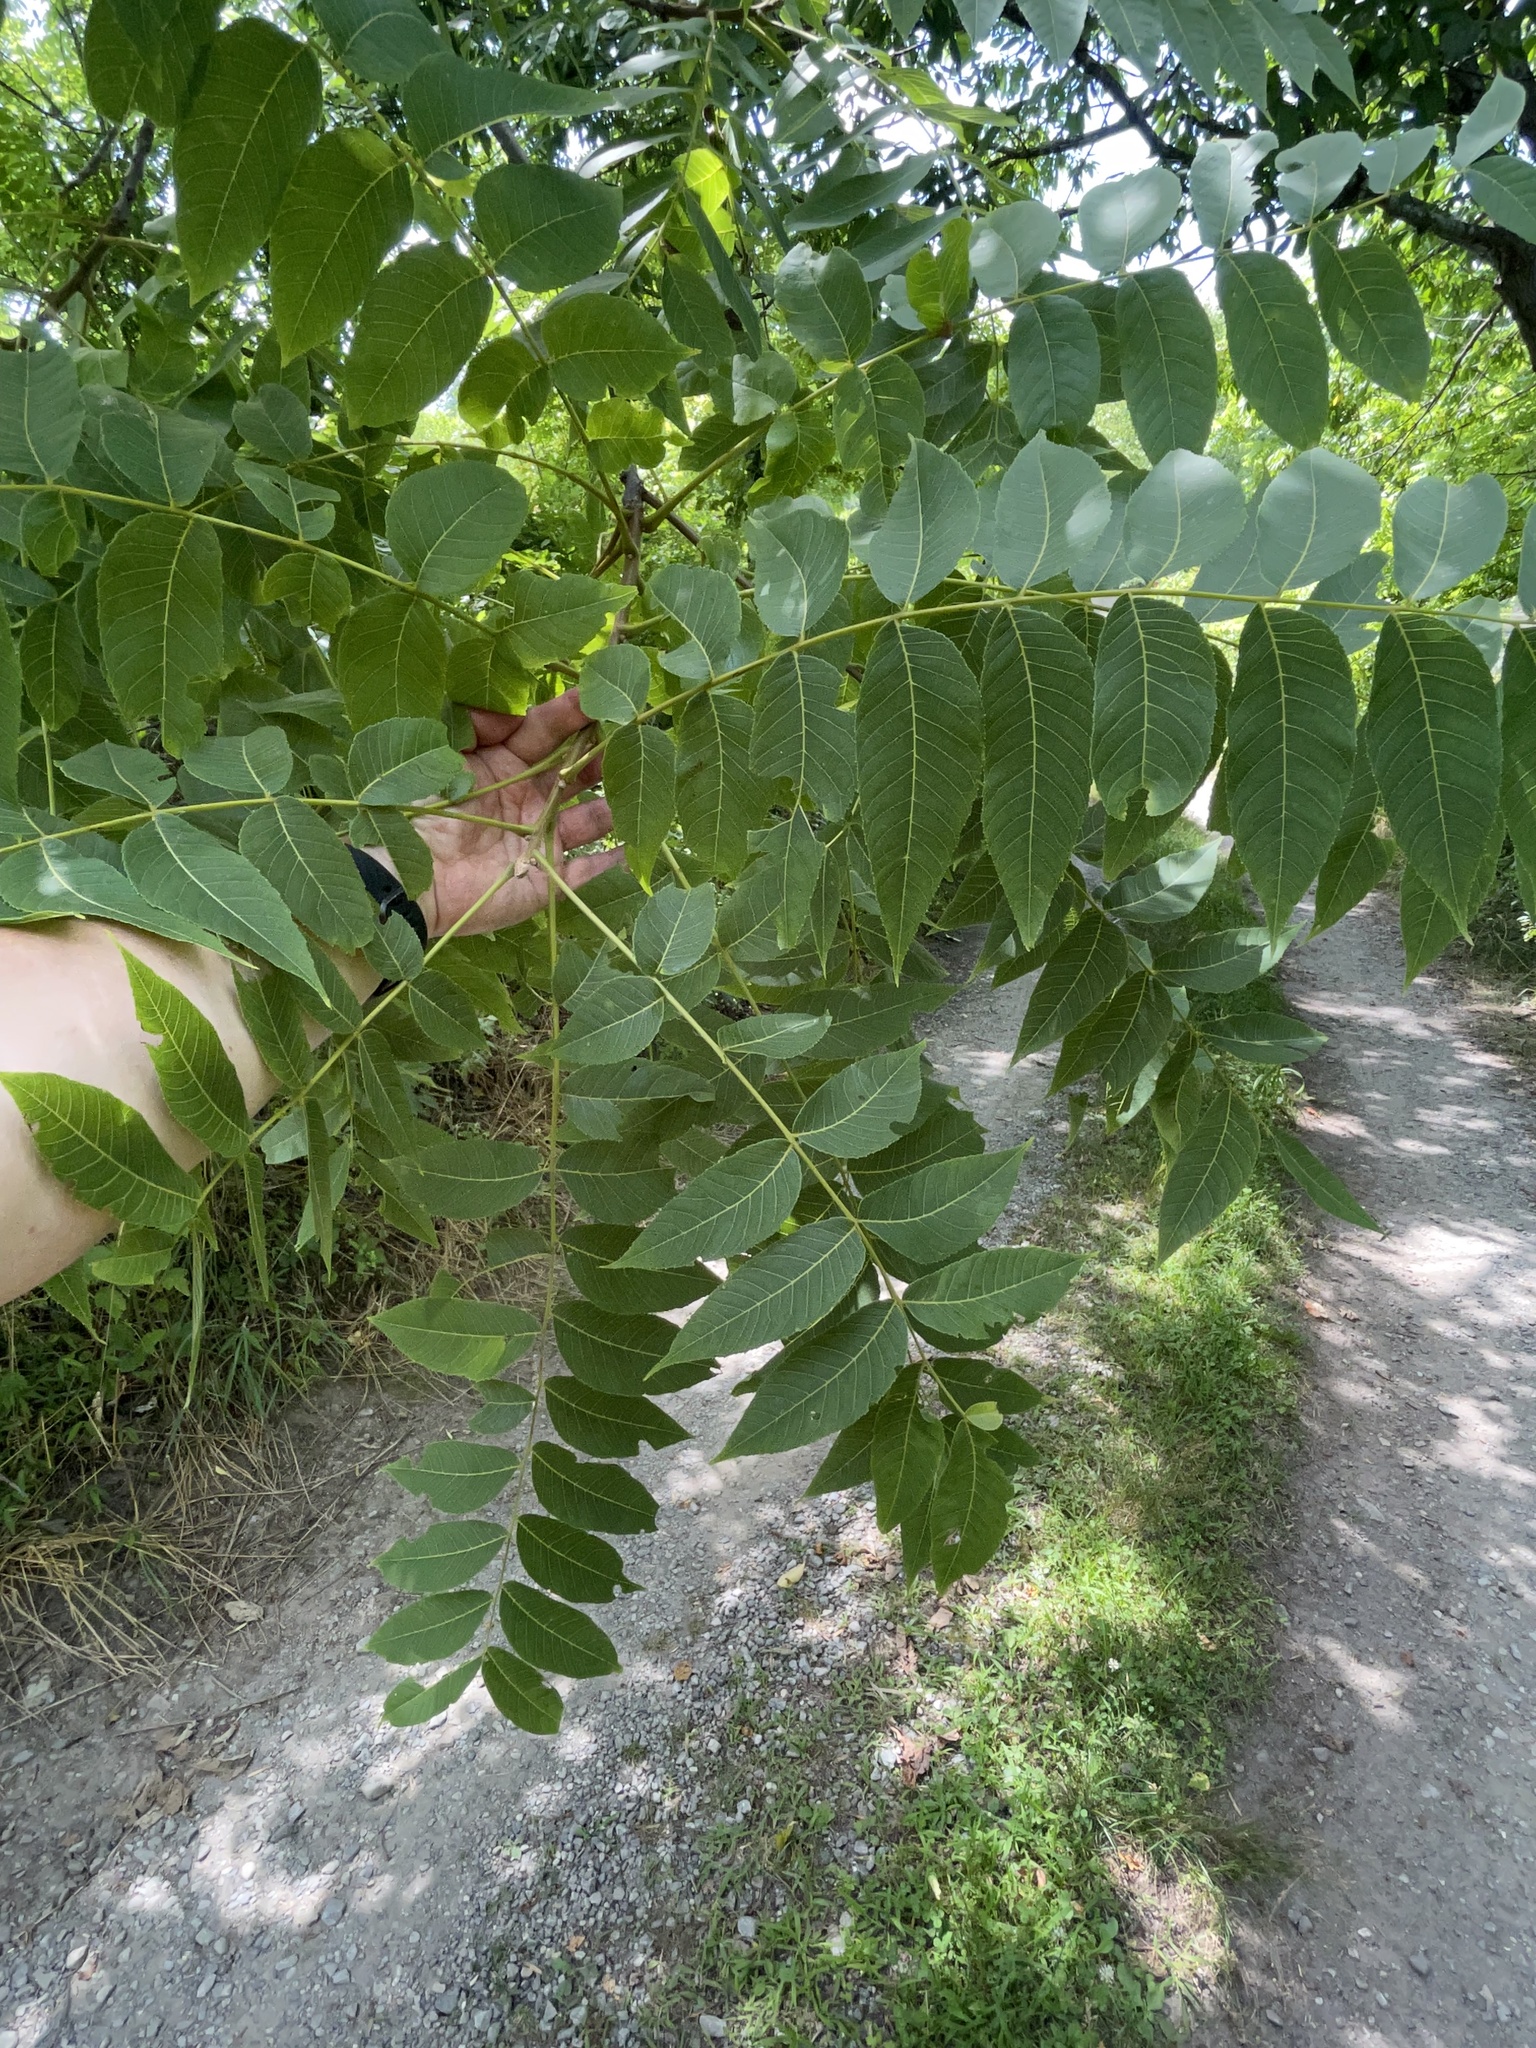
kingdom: Plantae
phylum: Tracheophyta
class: Magnoliopsida
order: Fagales
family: Juglandaceae
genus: Juglans
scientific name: Juglans nigra
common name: Black walnut
